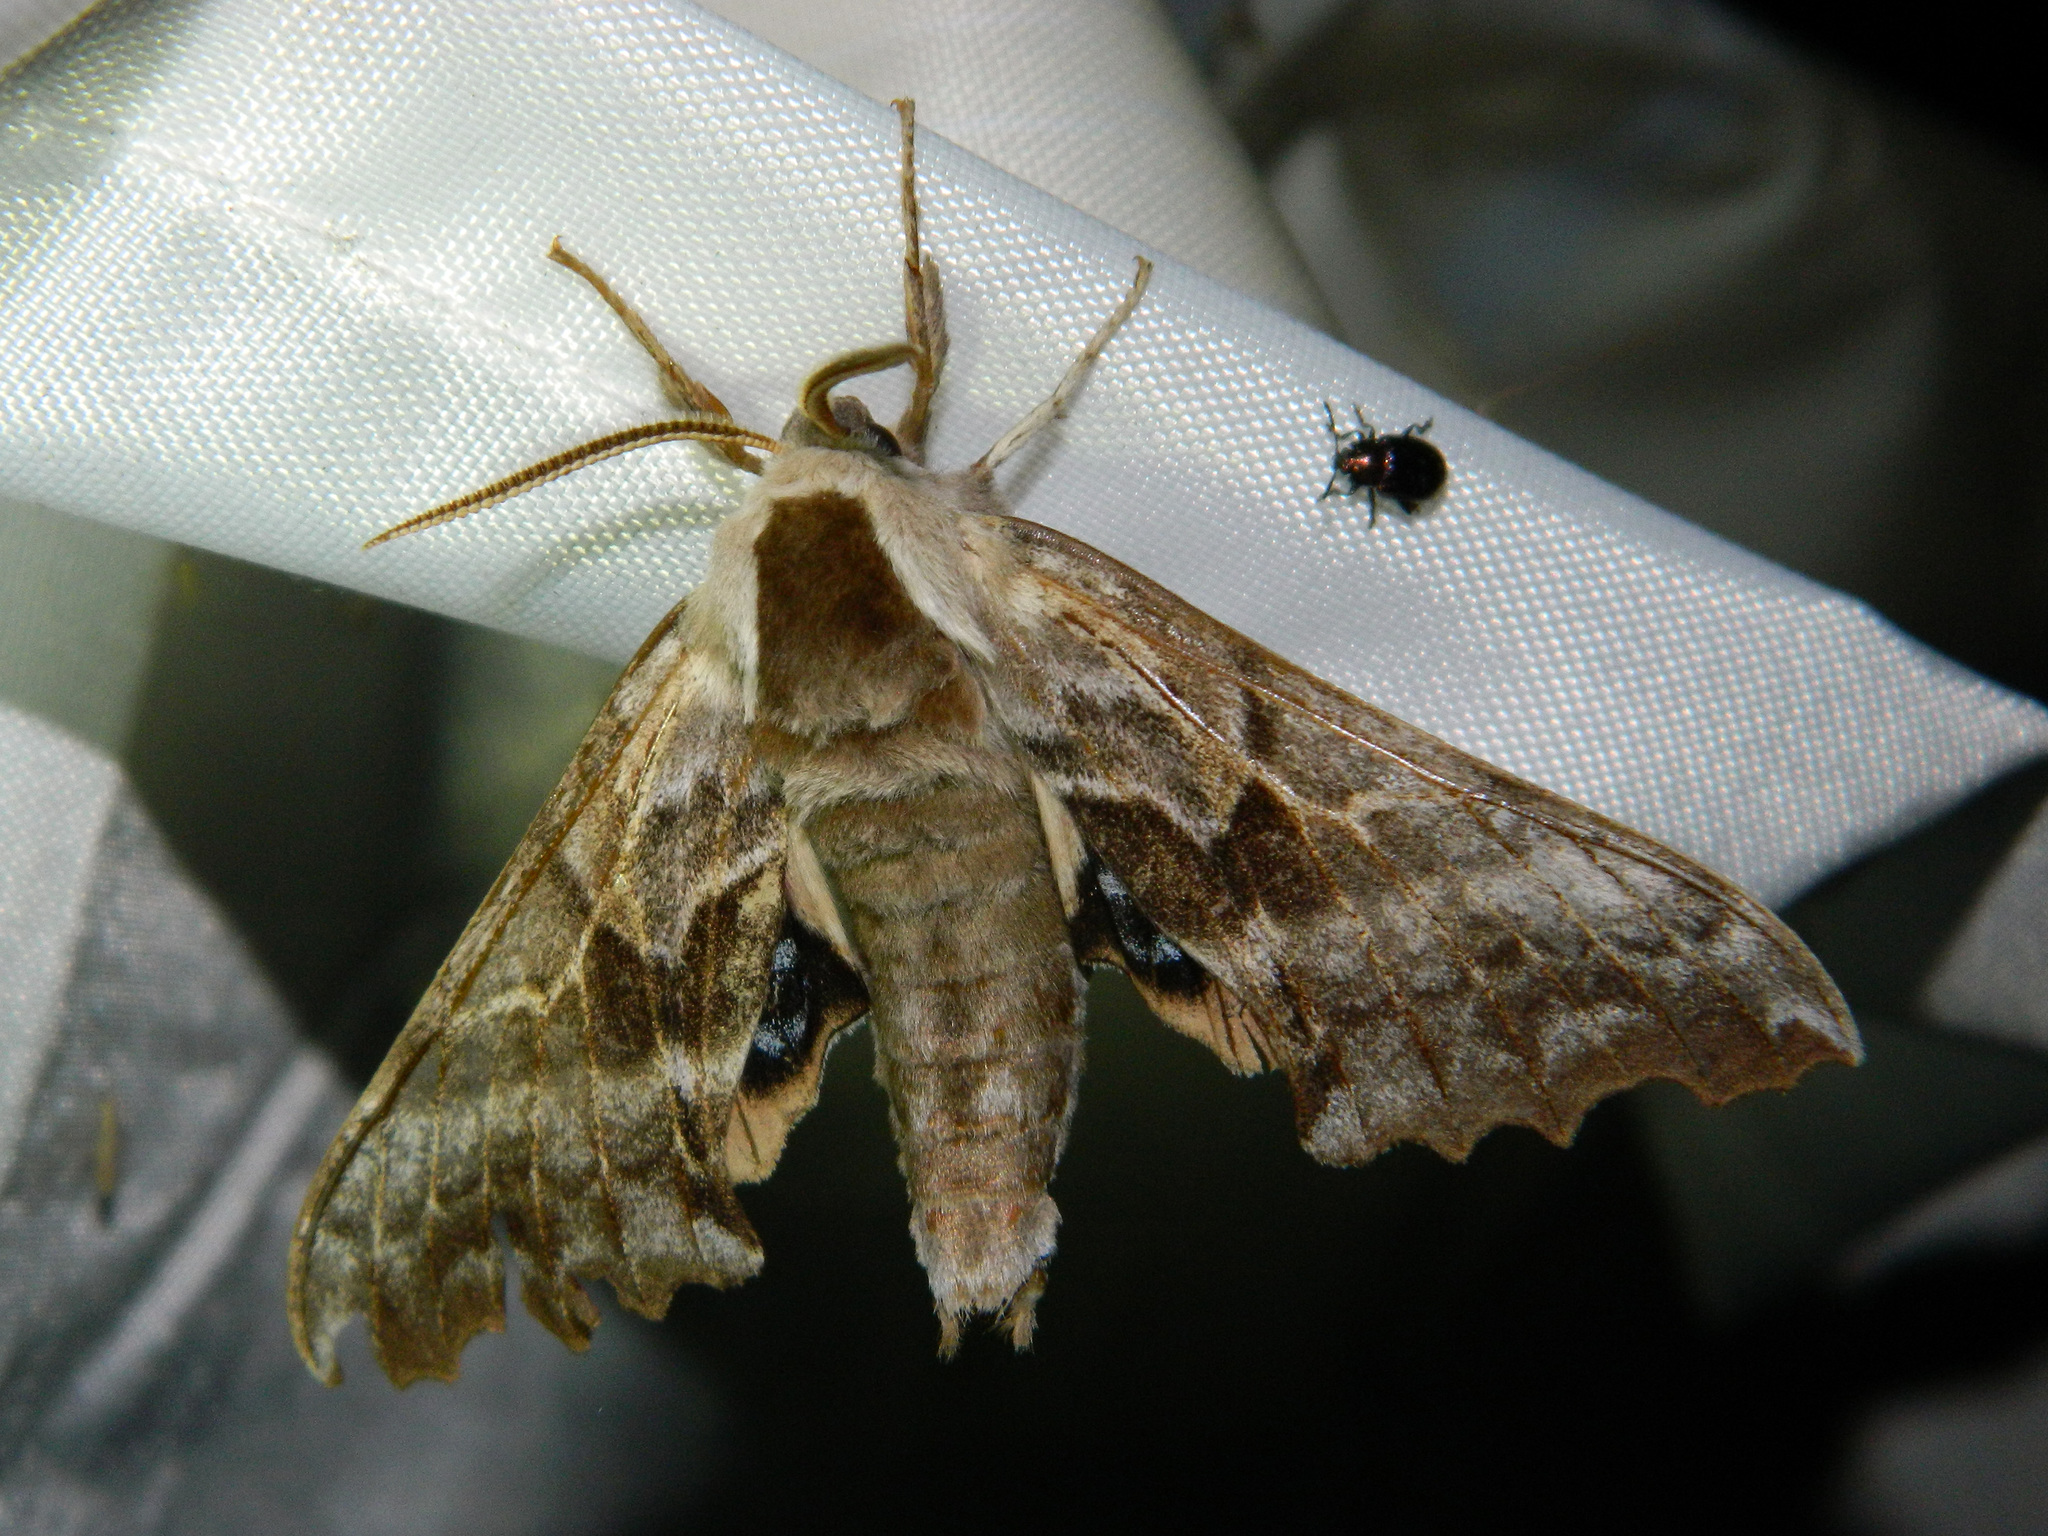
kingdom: Animalia
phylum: Arthropoda
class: Insecta
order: Lepidoptera
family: Sphingidae
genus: Smerinthus
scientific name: Smerinthus cerisyi
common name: Cerisy's sphinx moth
